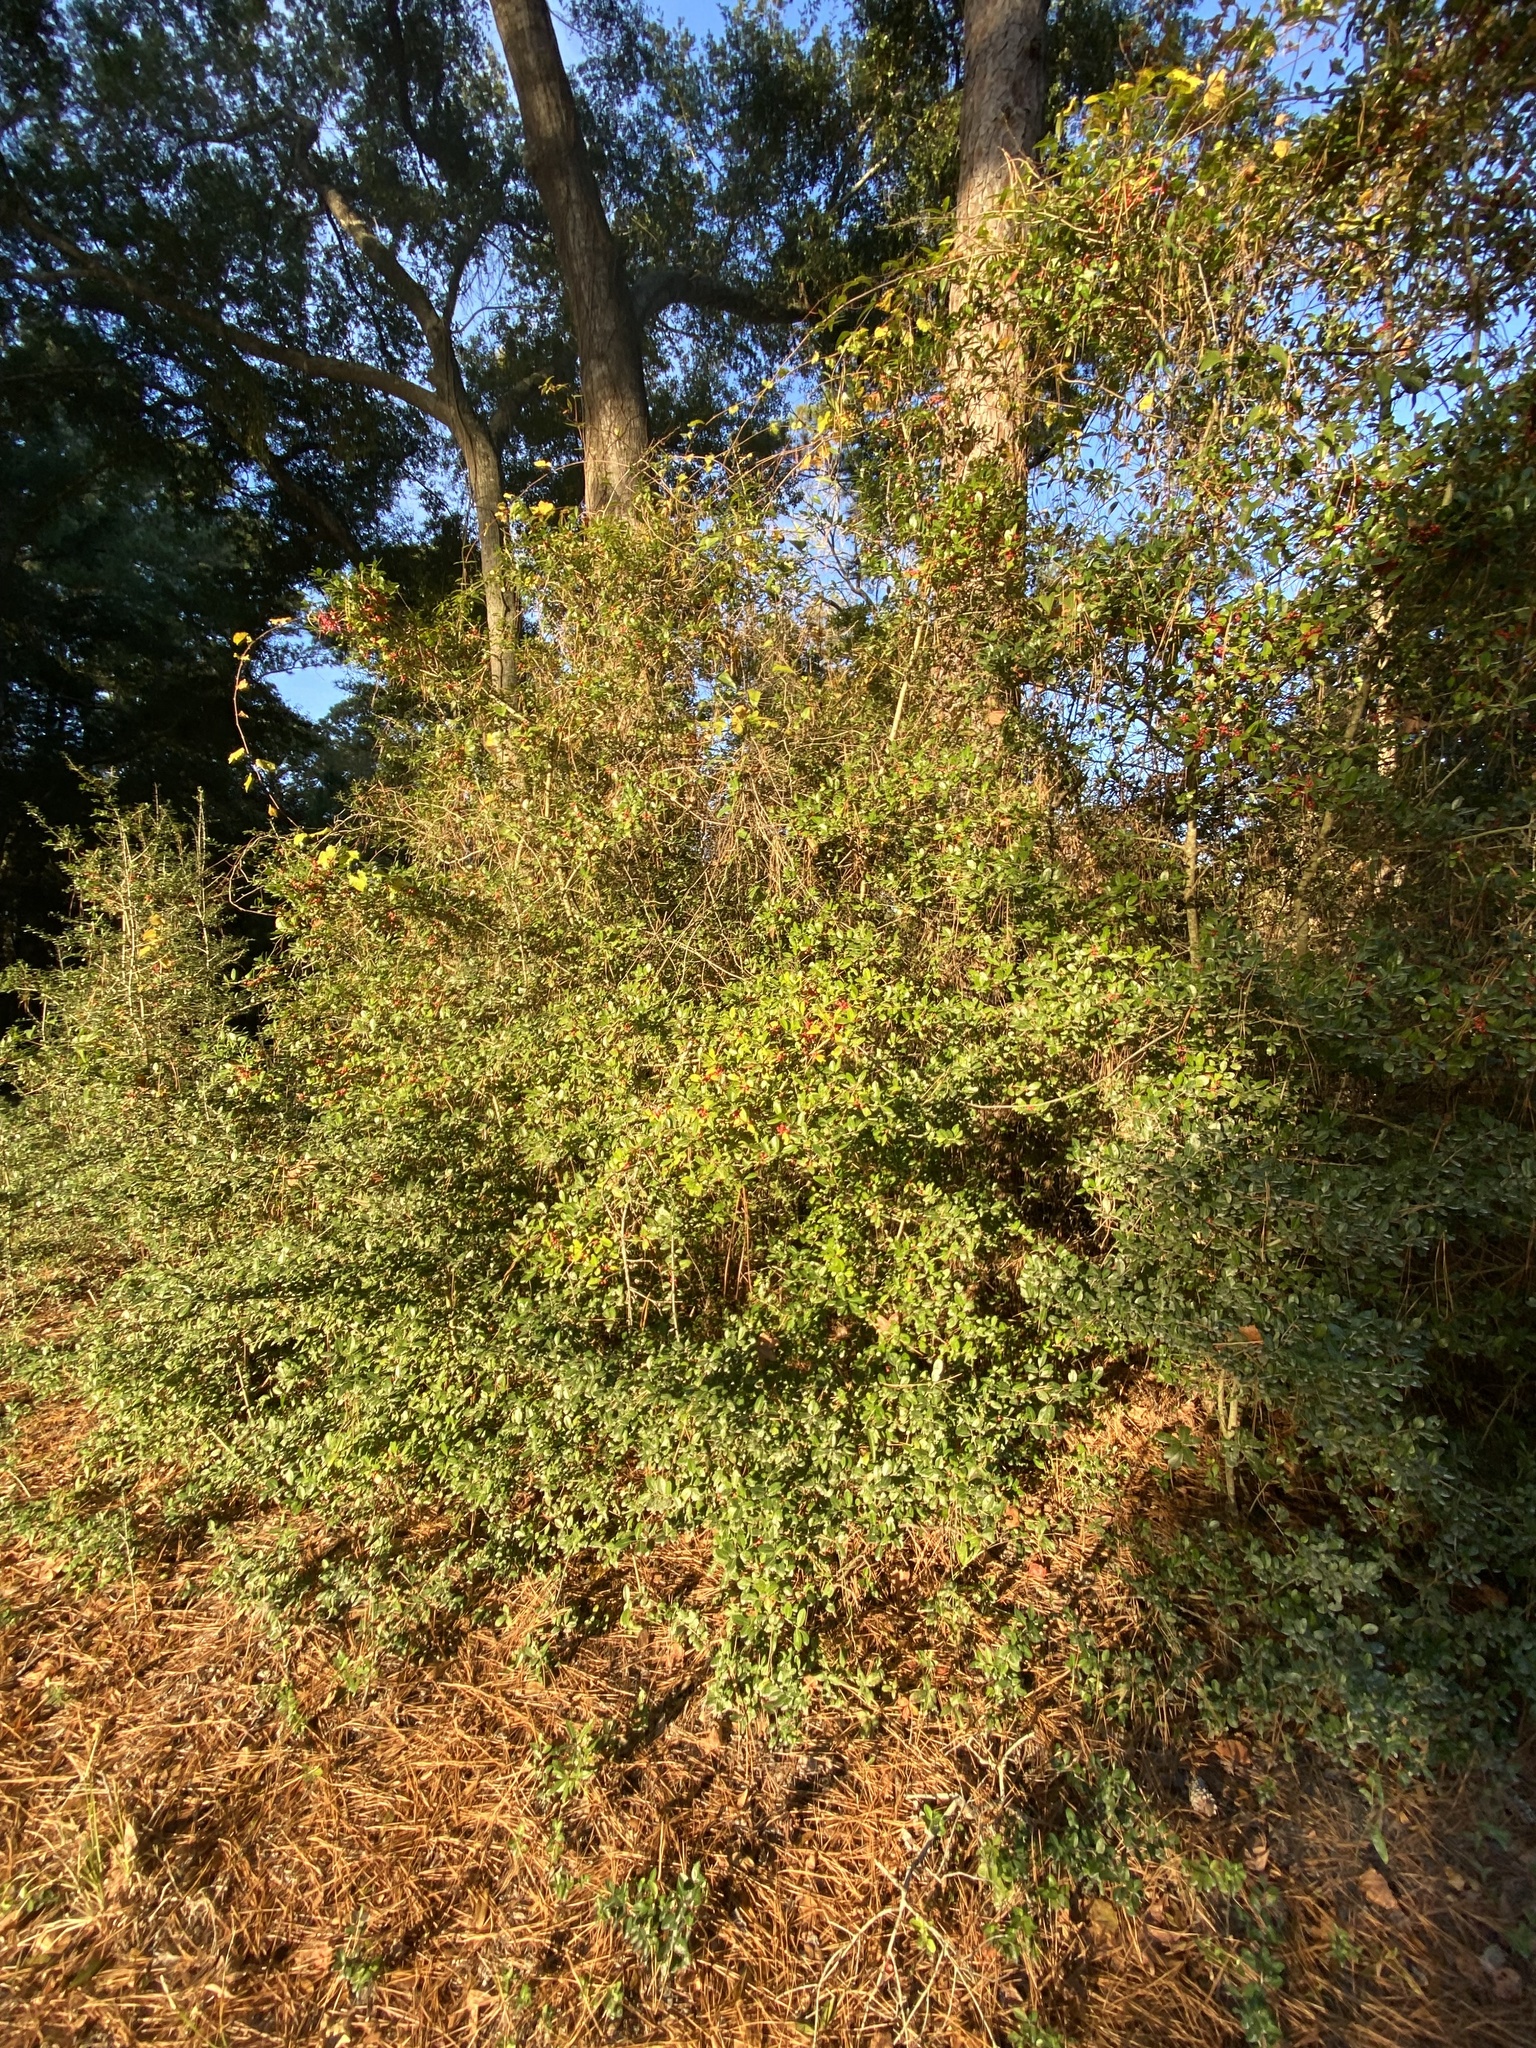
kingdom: Plantae
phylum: Tracheophyta
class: Magnoliopsida
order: Aquifoliales
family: Aquifoliaceae
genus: Ilex
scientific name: Ilex vomitoria
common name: Yaupon holly
